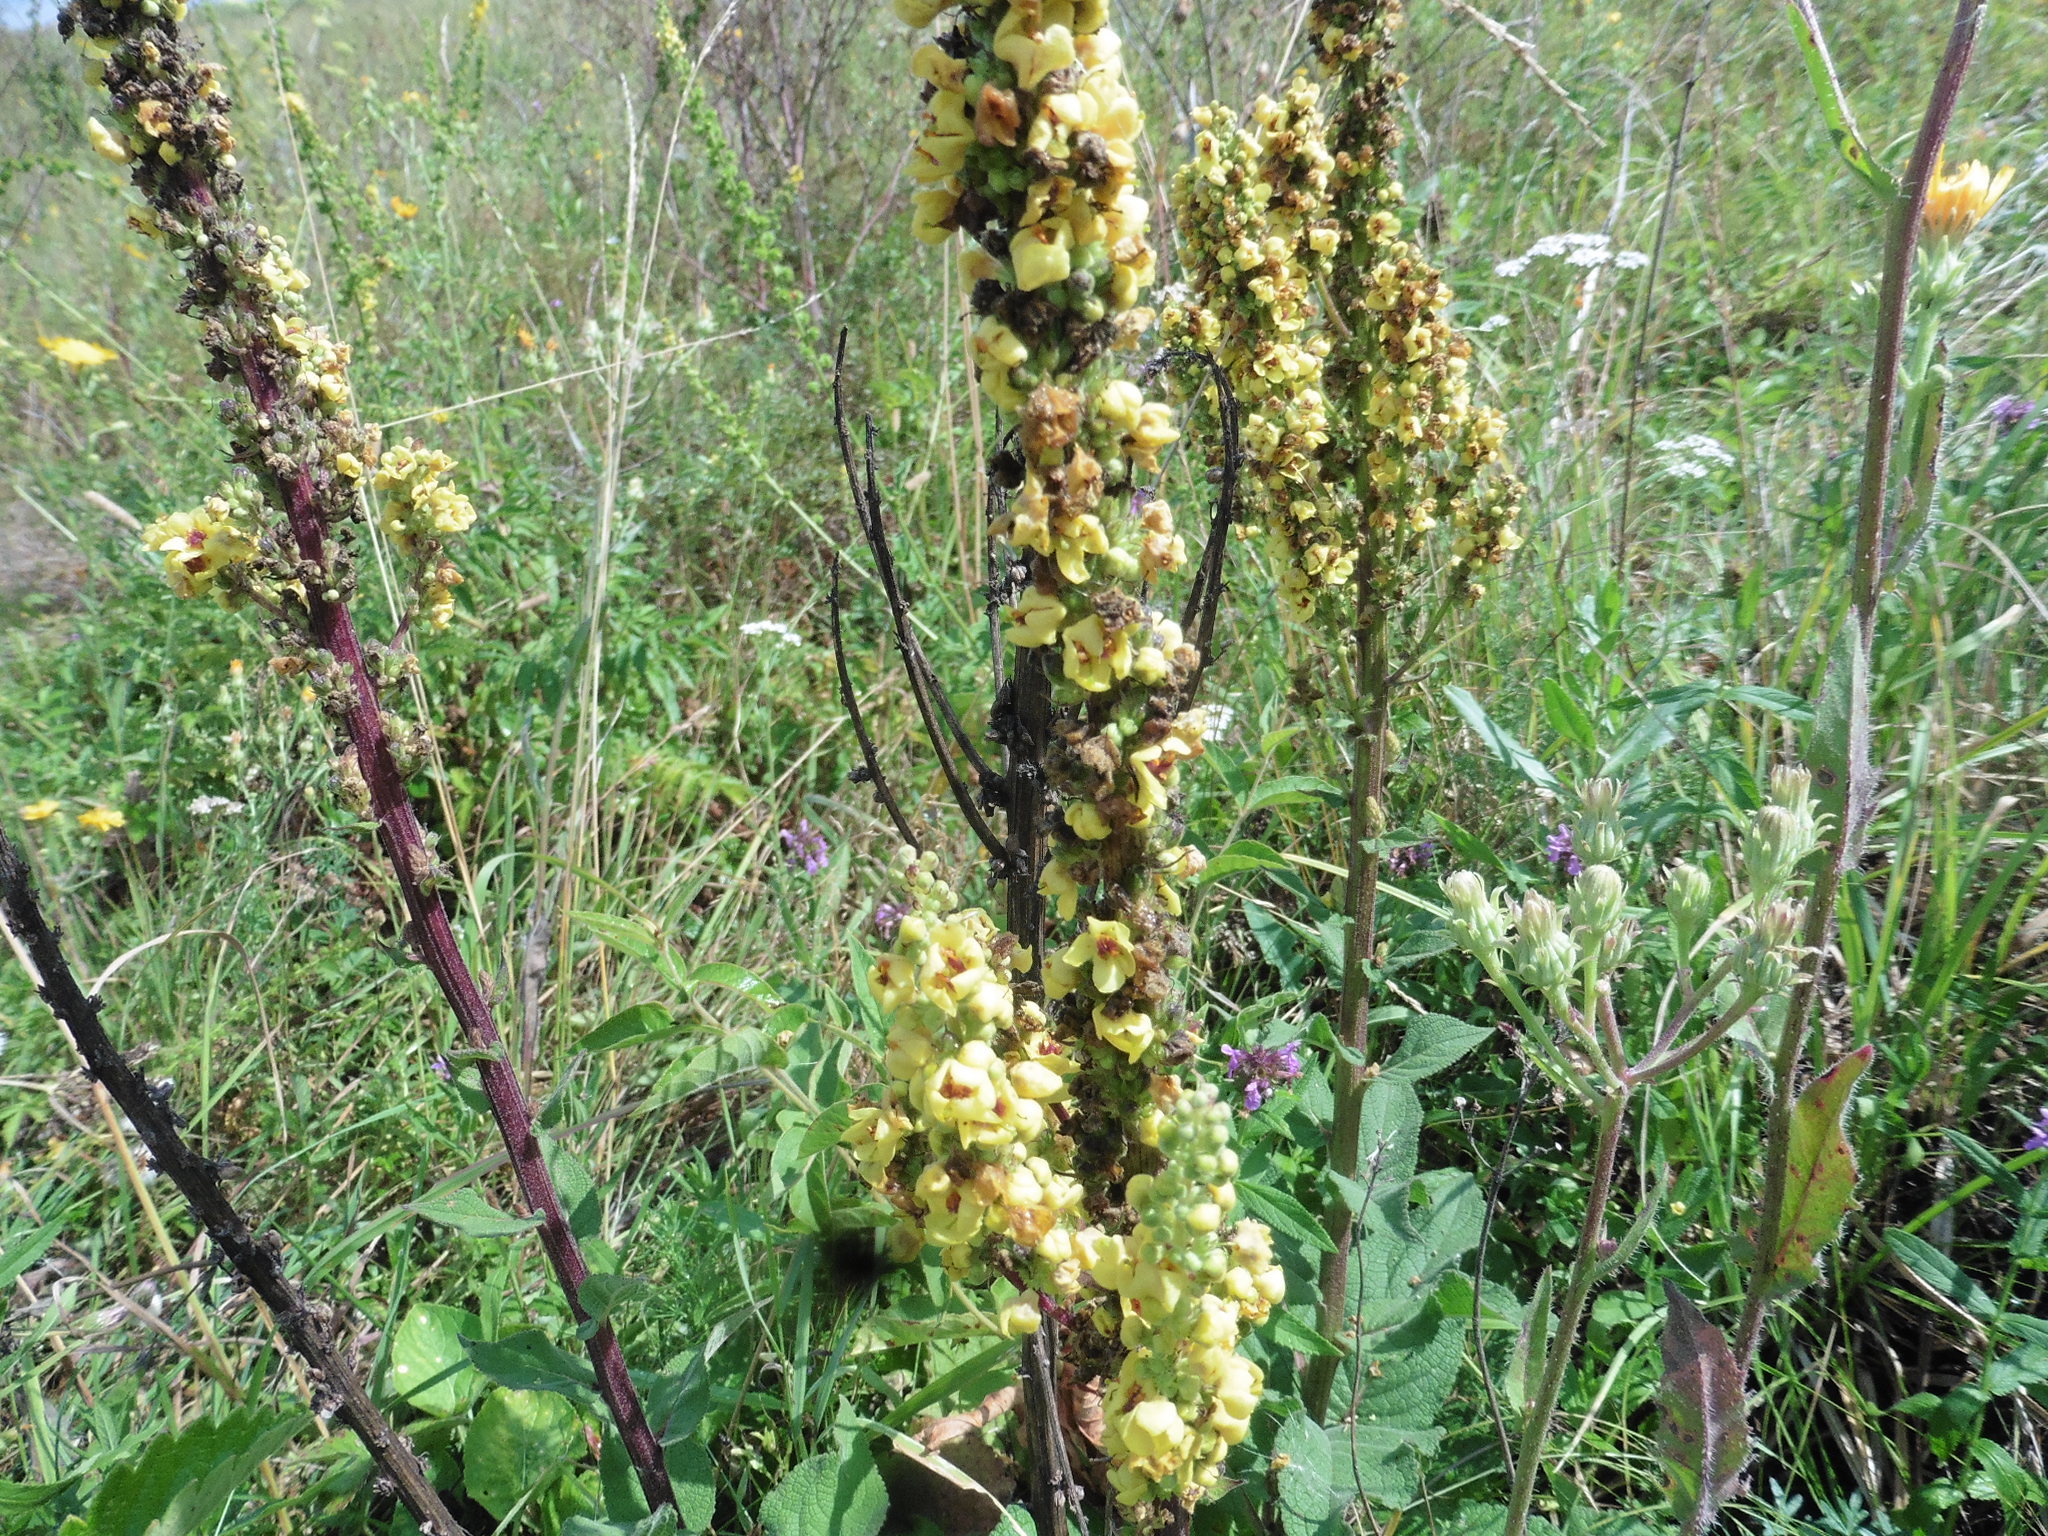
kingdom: Plantae
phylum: Tracheophyta
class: Magnoliopsida
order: Lamiales
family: Scrophulariaceae
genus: Verbascum
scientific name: Verbascum nigrum
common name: Dark mullein
